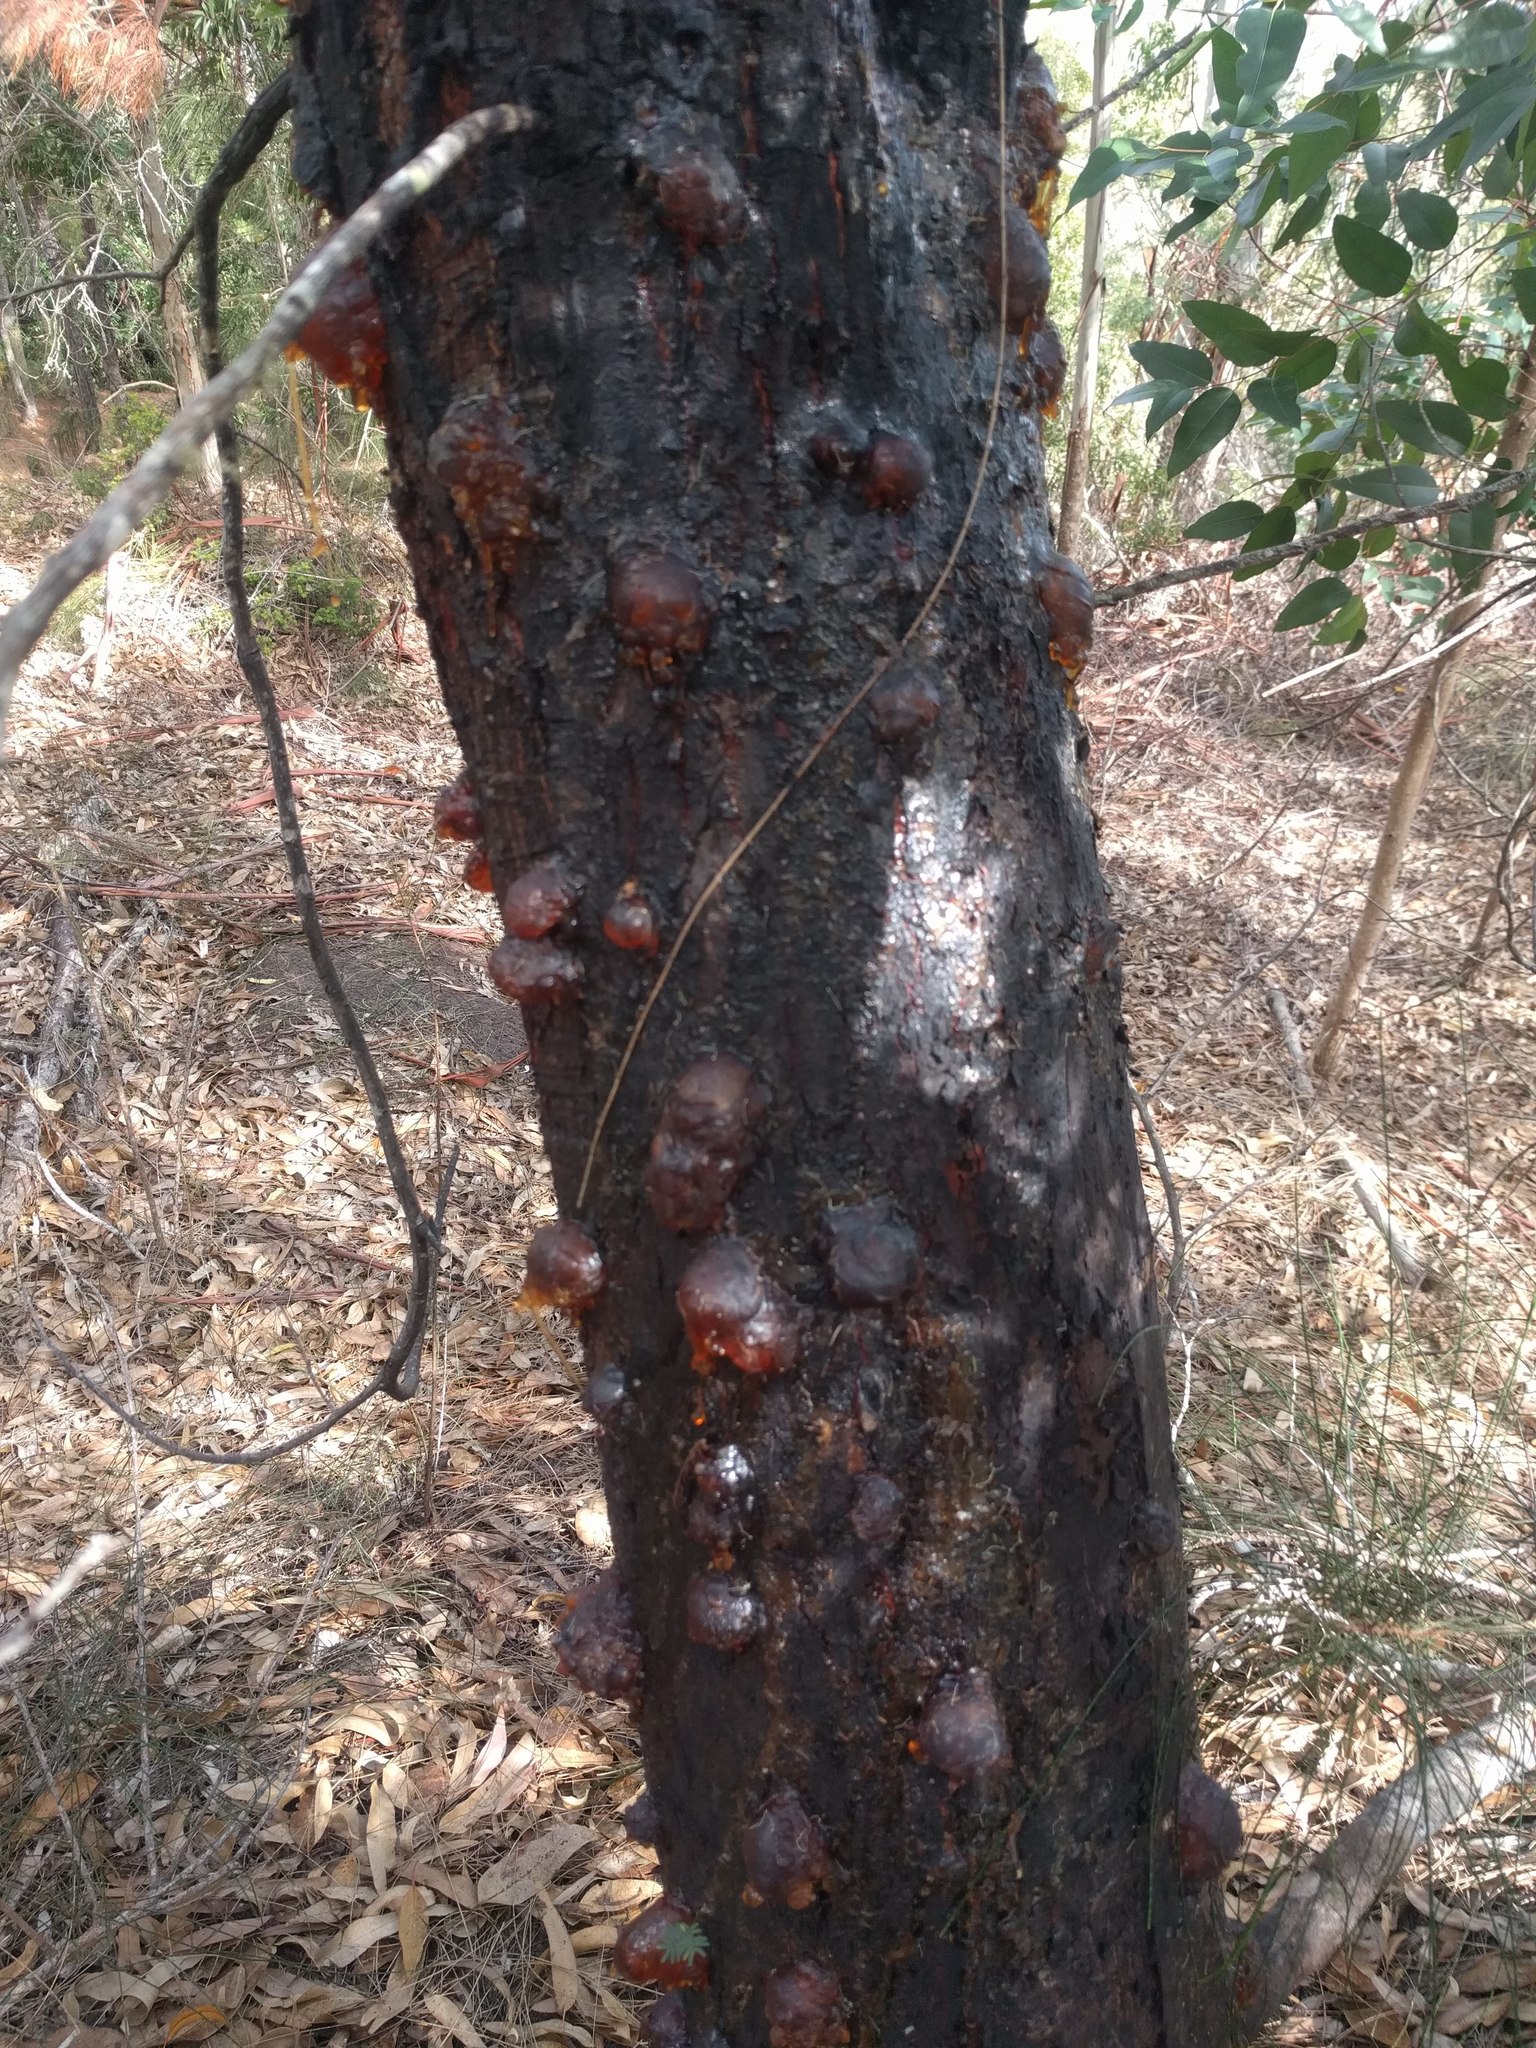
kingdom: Plantae
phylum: Tracheophyta
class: Magnoliopsida
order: Fabales
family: Fabaceae
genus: Acacia
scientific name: Acacia mearnsii
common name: Black wattle
